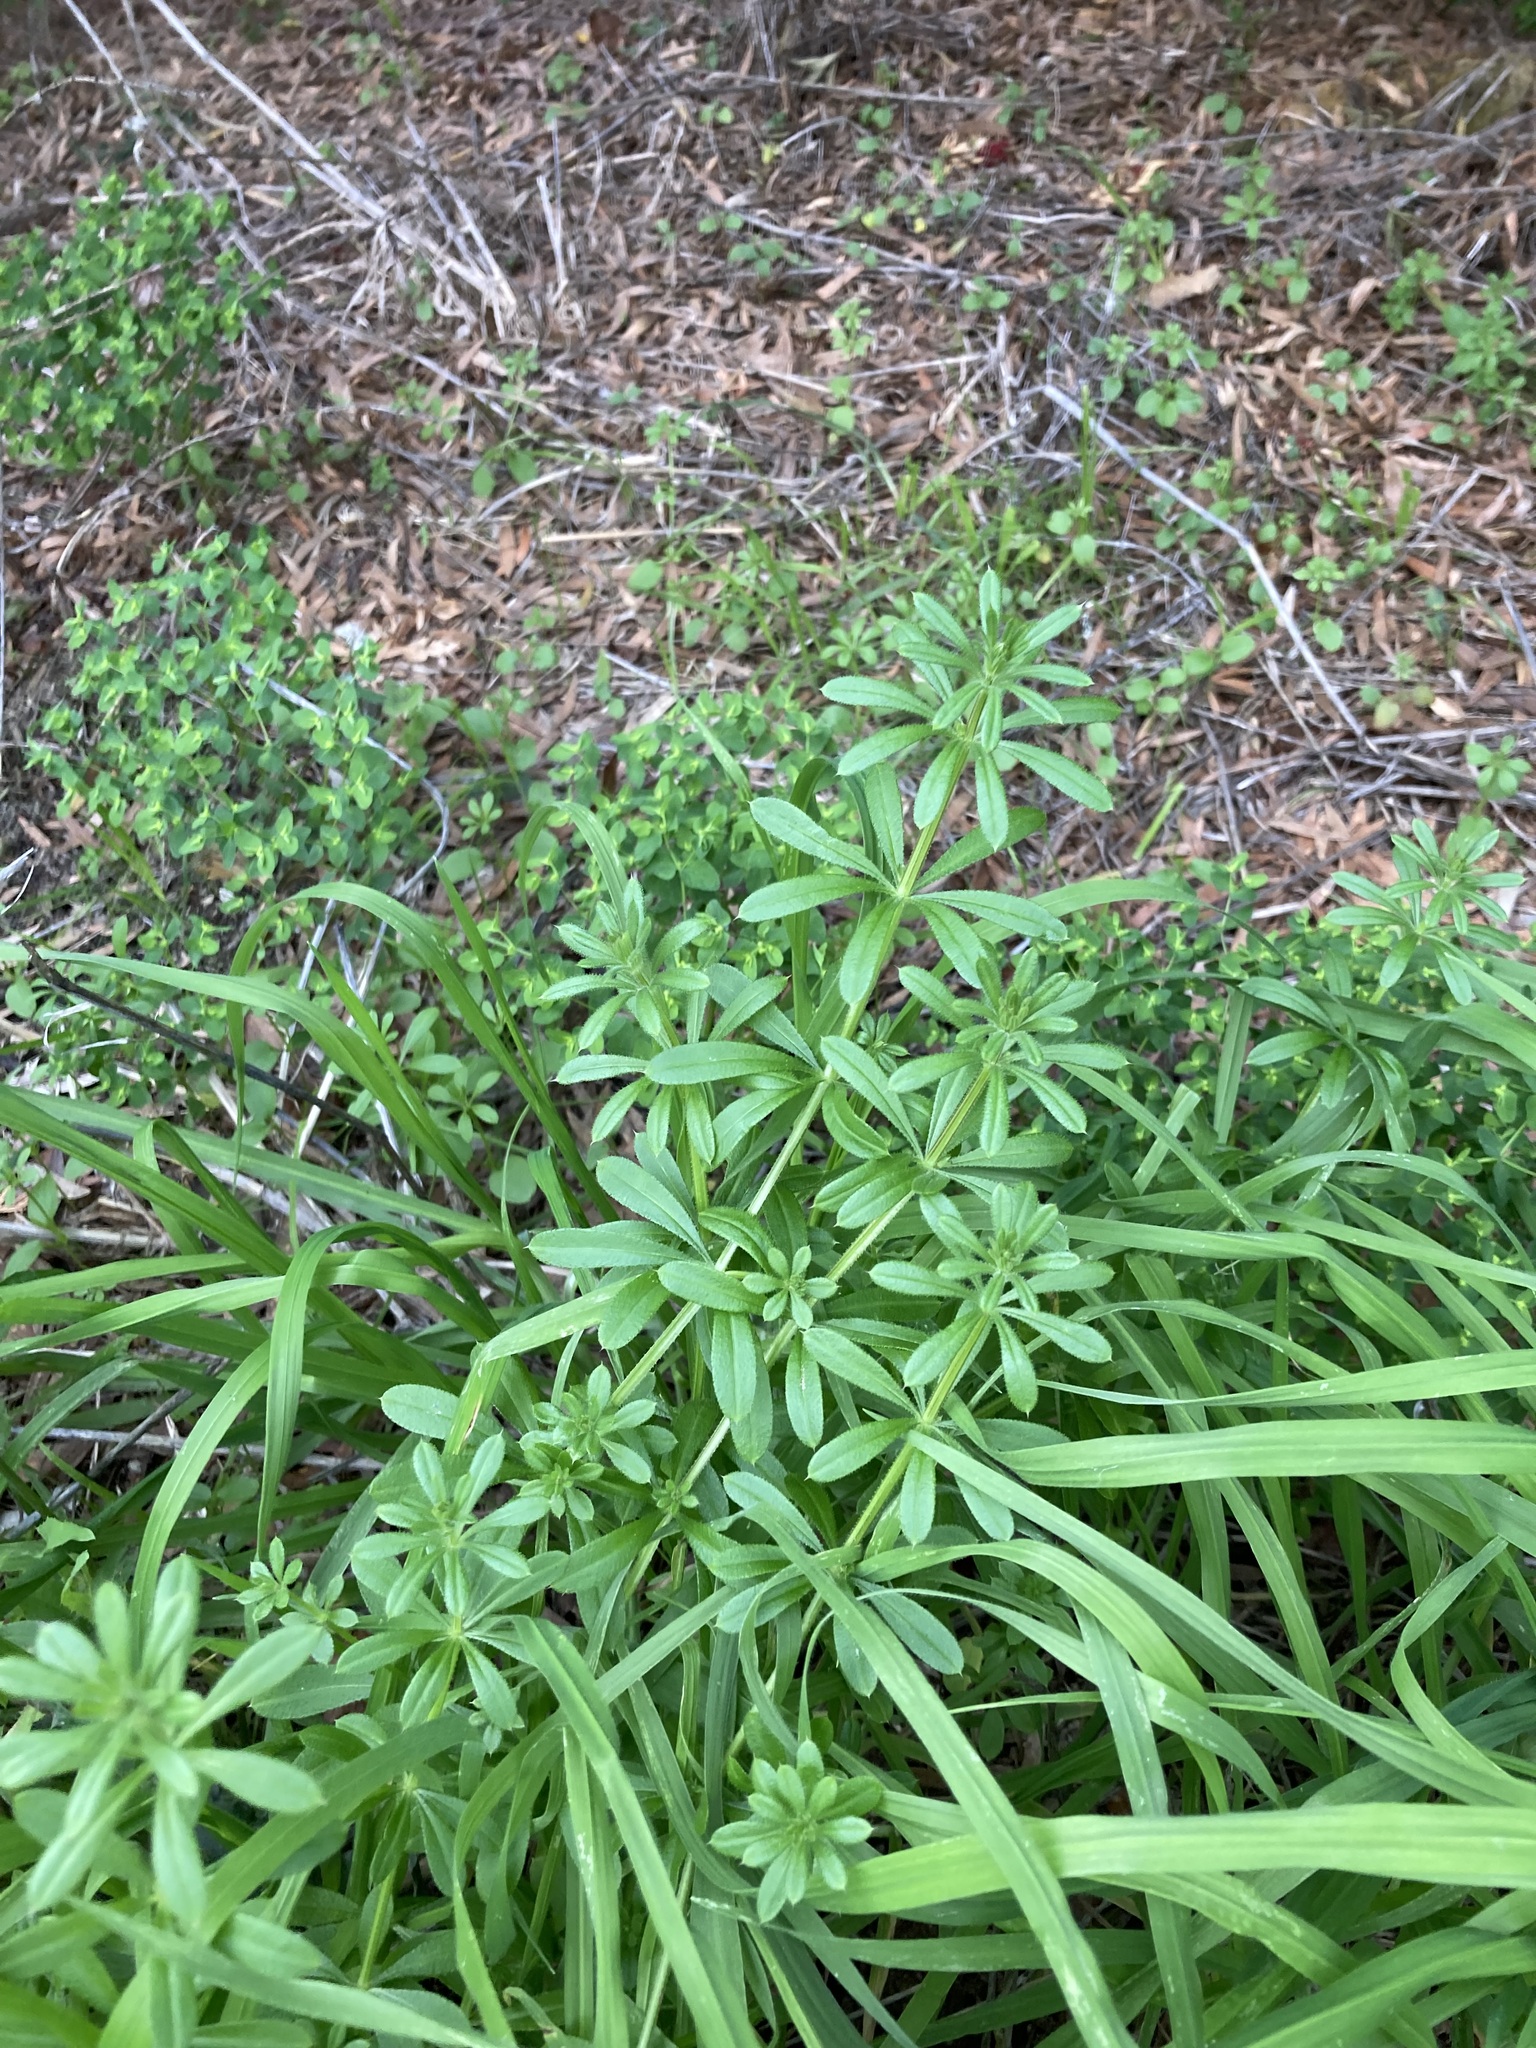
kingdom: Plantae
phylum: Tracheophyta
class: Magnoliopsida
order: Gentianales
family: Rubiaceae
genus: Galium
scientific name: Galium aparine
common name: Cleavers
